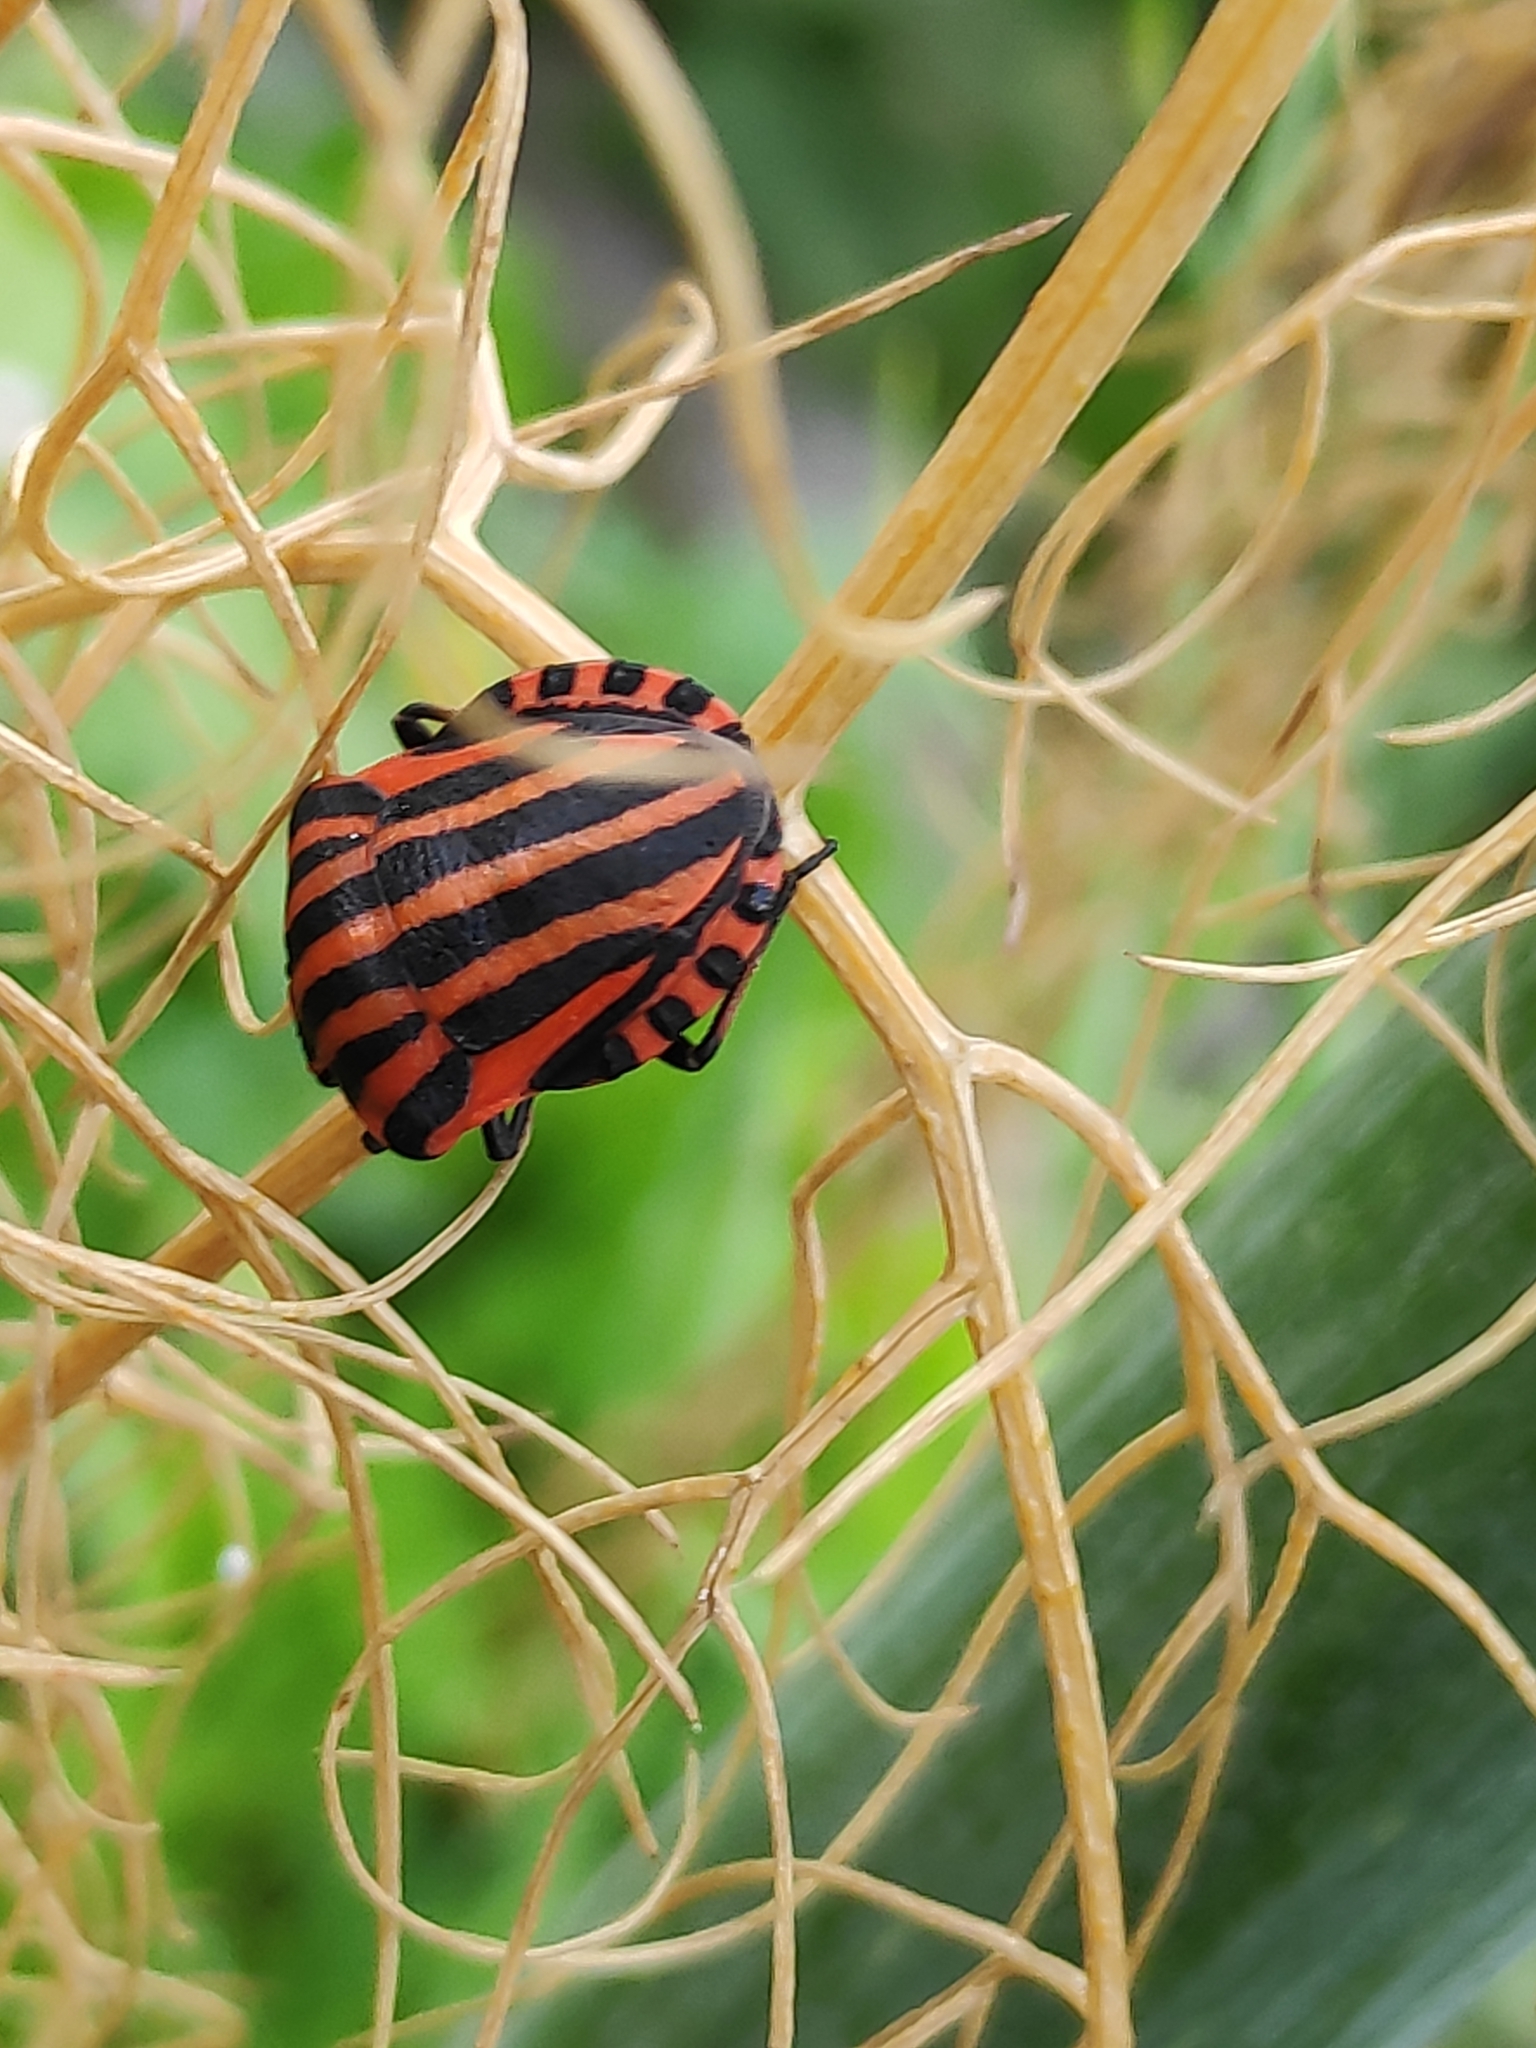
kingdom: Animalia
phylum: Arthropoda
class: Insecta
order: Hemiptera
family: Pentatomidae
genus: Graphosoma
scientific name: Graphosoma italicum
